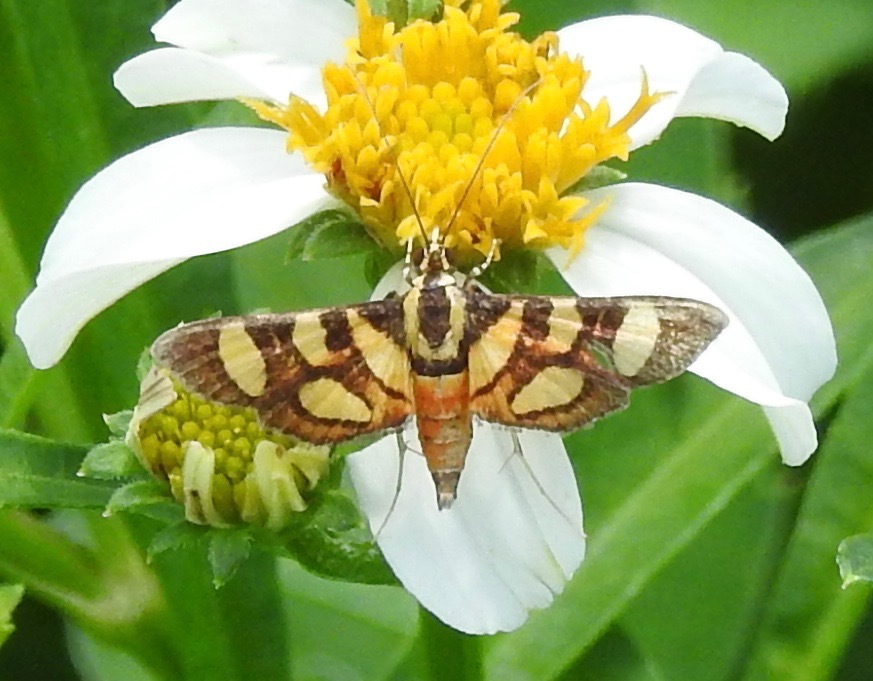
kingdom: Animalia
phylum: Arthropoda
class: Insecta
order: Lepidoptera
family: Crambidae
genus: Syngamia
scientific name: Syngamia florella
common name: Orange-spotted flower moth
